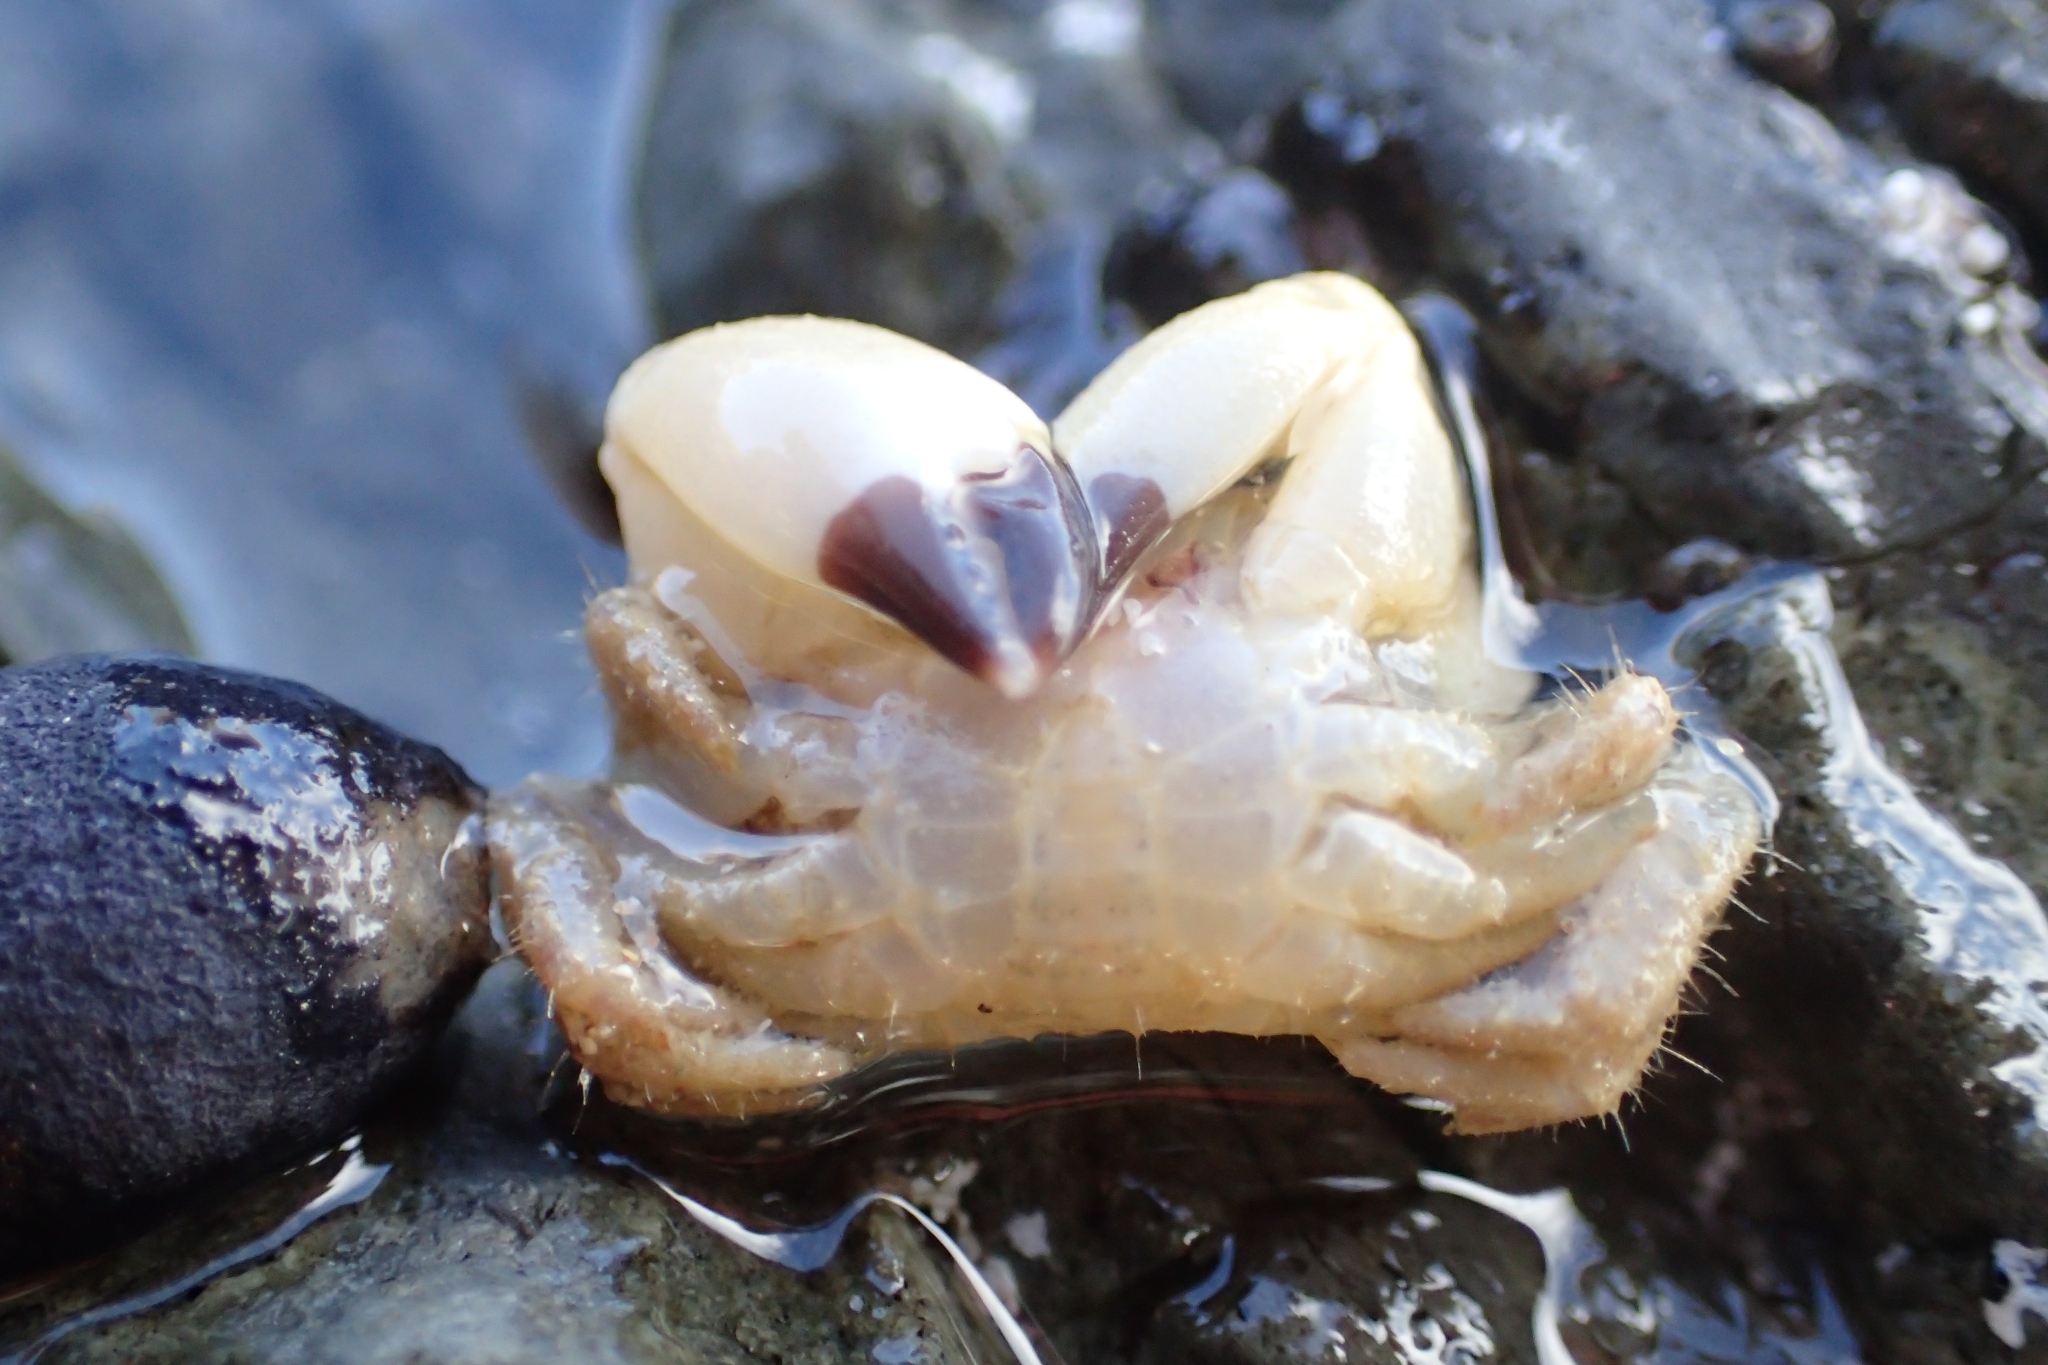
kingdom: Animalia
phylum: Arthropoda
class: Malacostraca
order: Decapoda
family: Oziidae
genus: Ozius
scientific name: Ozius deplanatus
